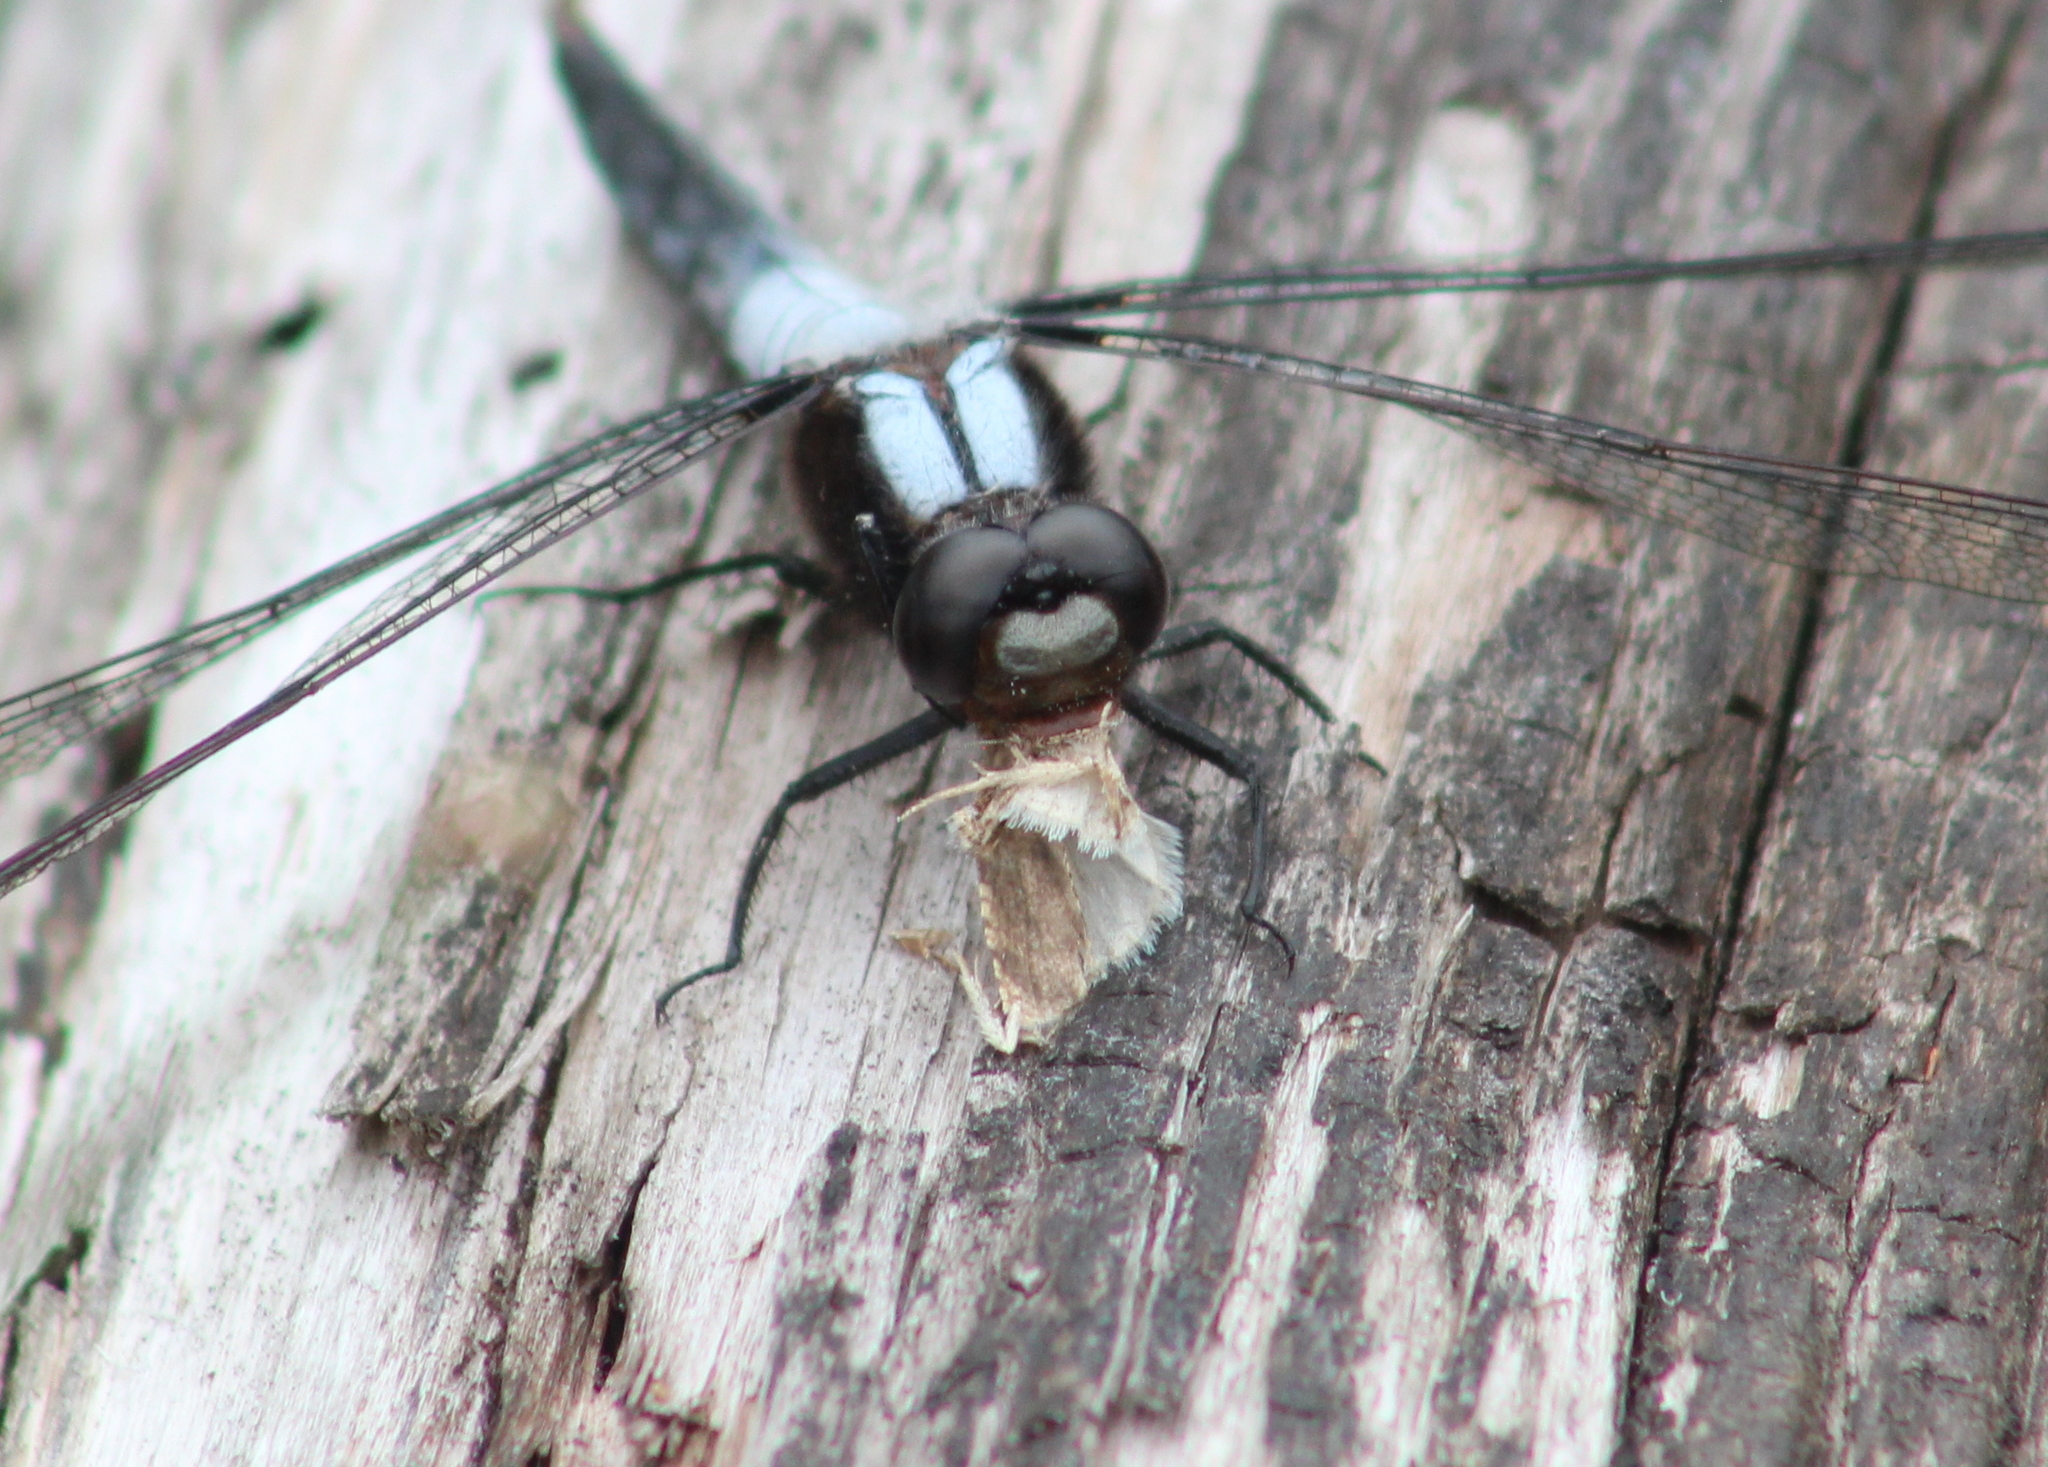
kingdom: Animalia
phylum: Arthropoda
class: Insecta
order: Odonata
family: Libellulidae
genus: Ladona
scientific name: Ladona julia
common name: Chalk-fronted corporal
